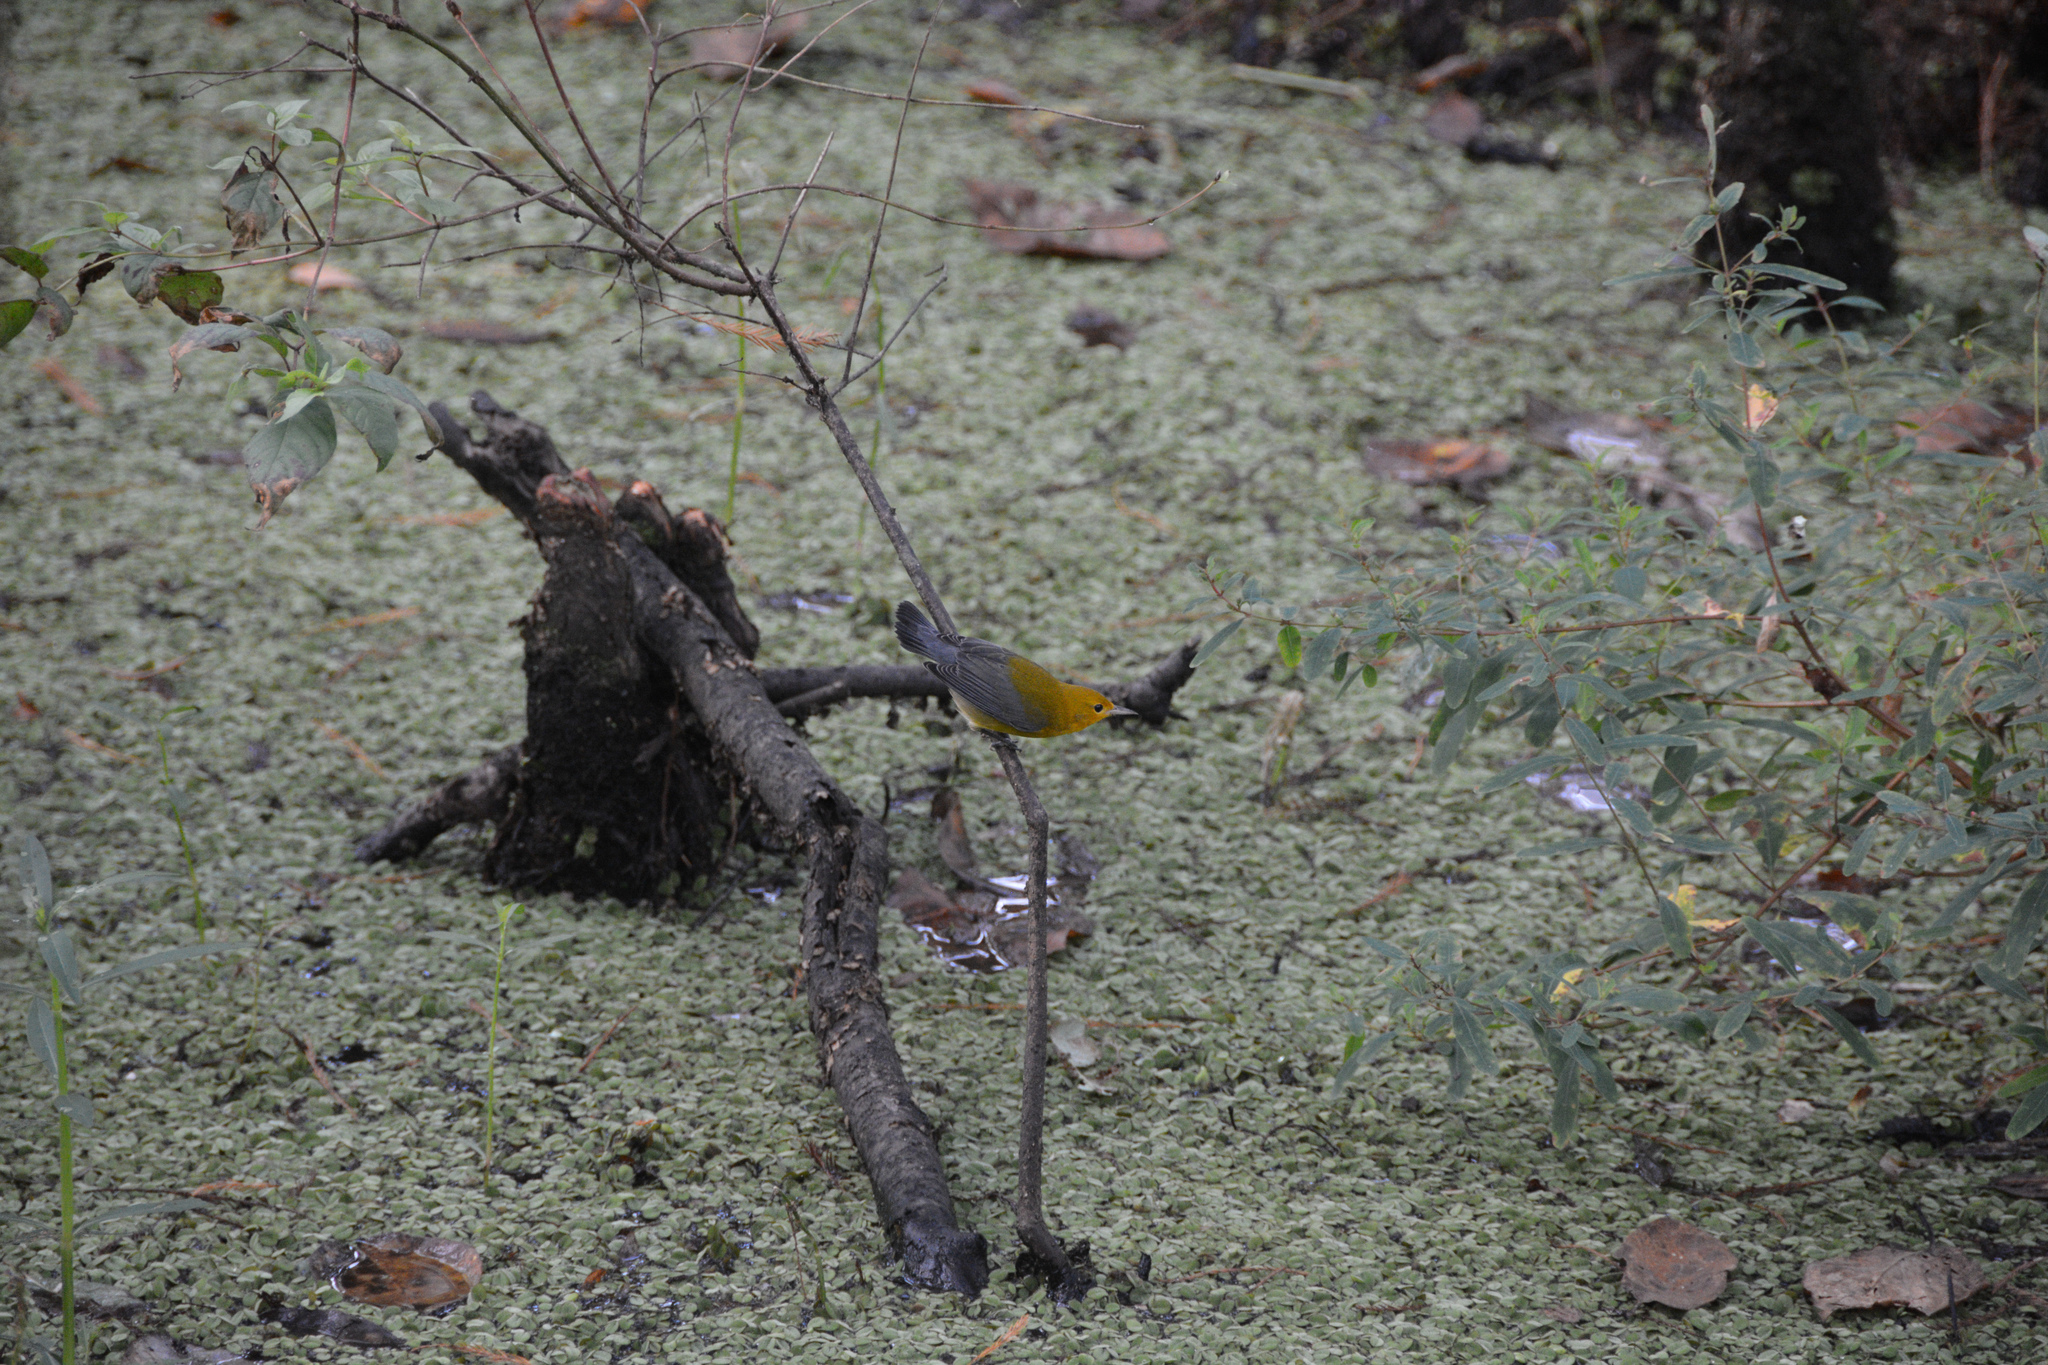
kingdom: Animalia
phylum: Chordata
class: Aves
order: Passeriformes
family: Parulidae
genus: Protonotaria
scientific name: Protonotaria citrea
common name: Prothonotary warbler
